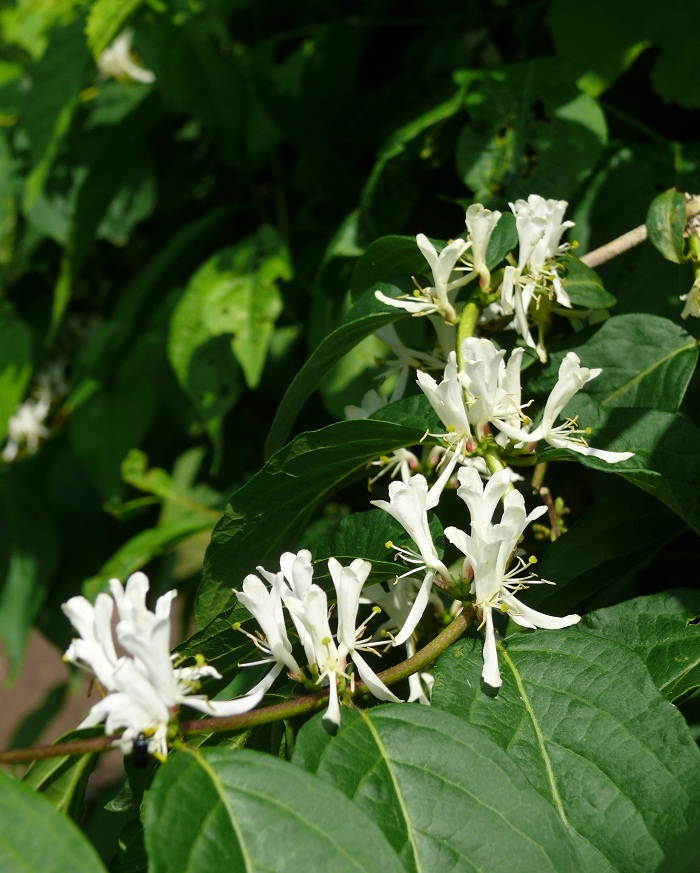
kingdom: Plantae
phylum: Tracheophyta
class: Magnoliopsida
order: Dipsacales
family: Caprifoliaceae
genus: Lonicera
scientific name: Lonicera maackii
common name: Amur honeysuckle
